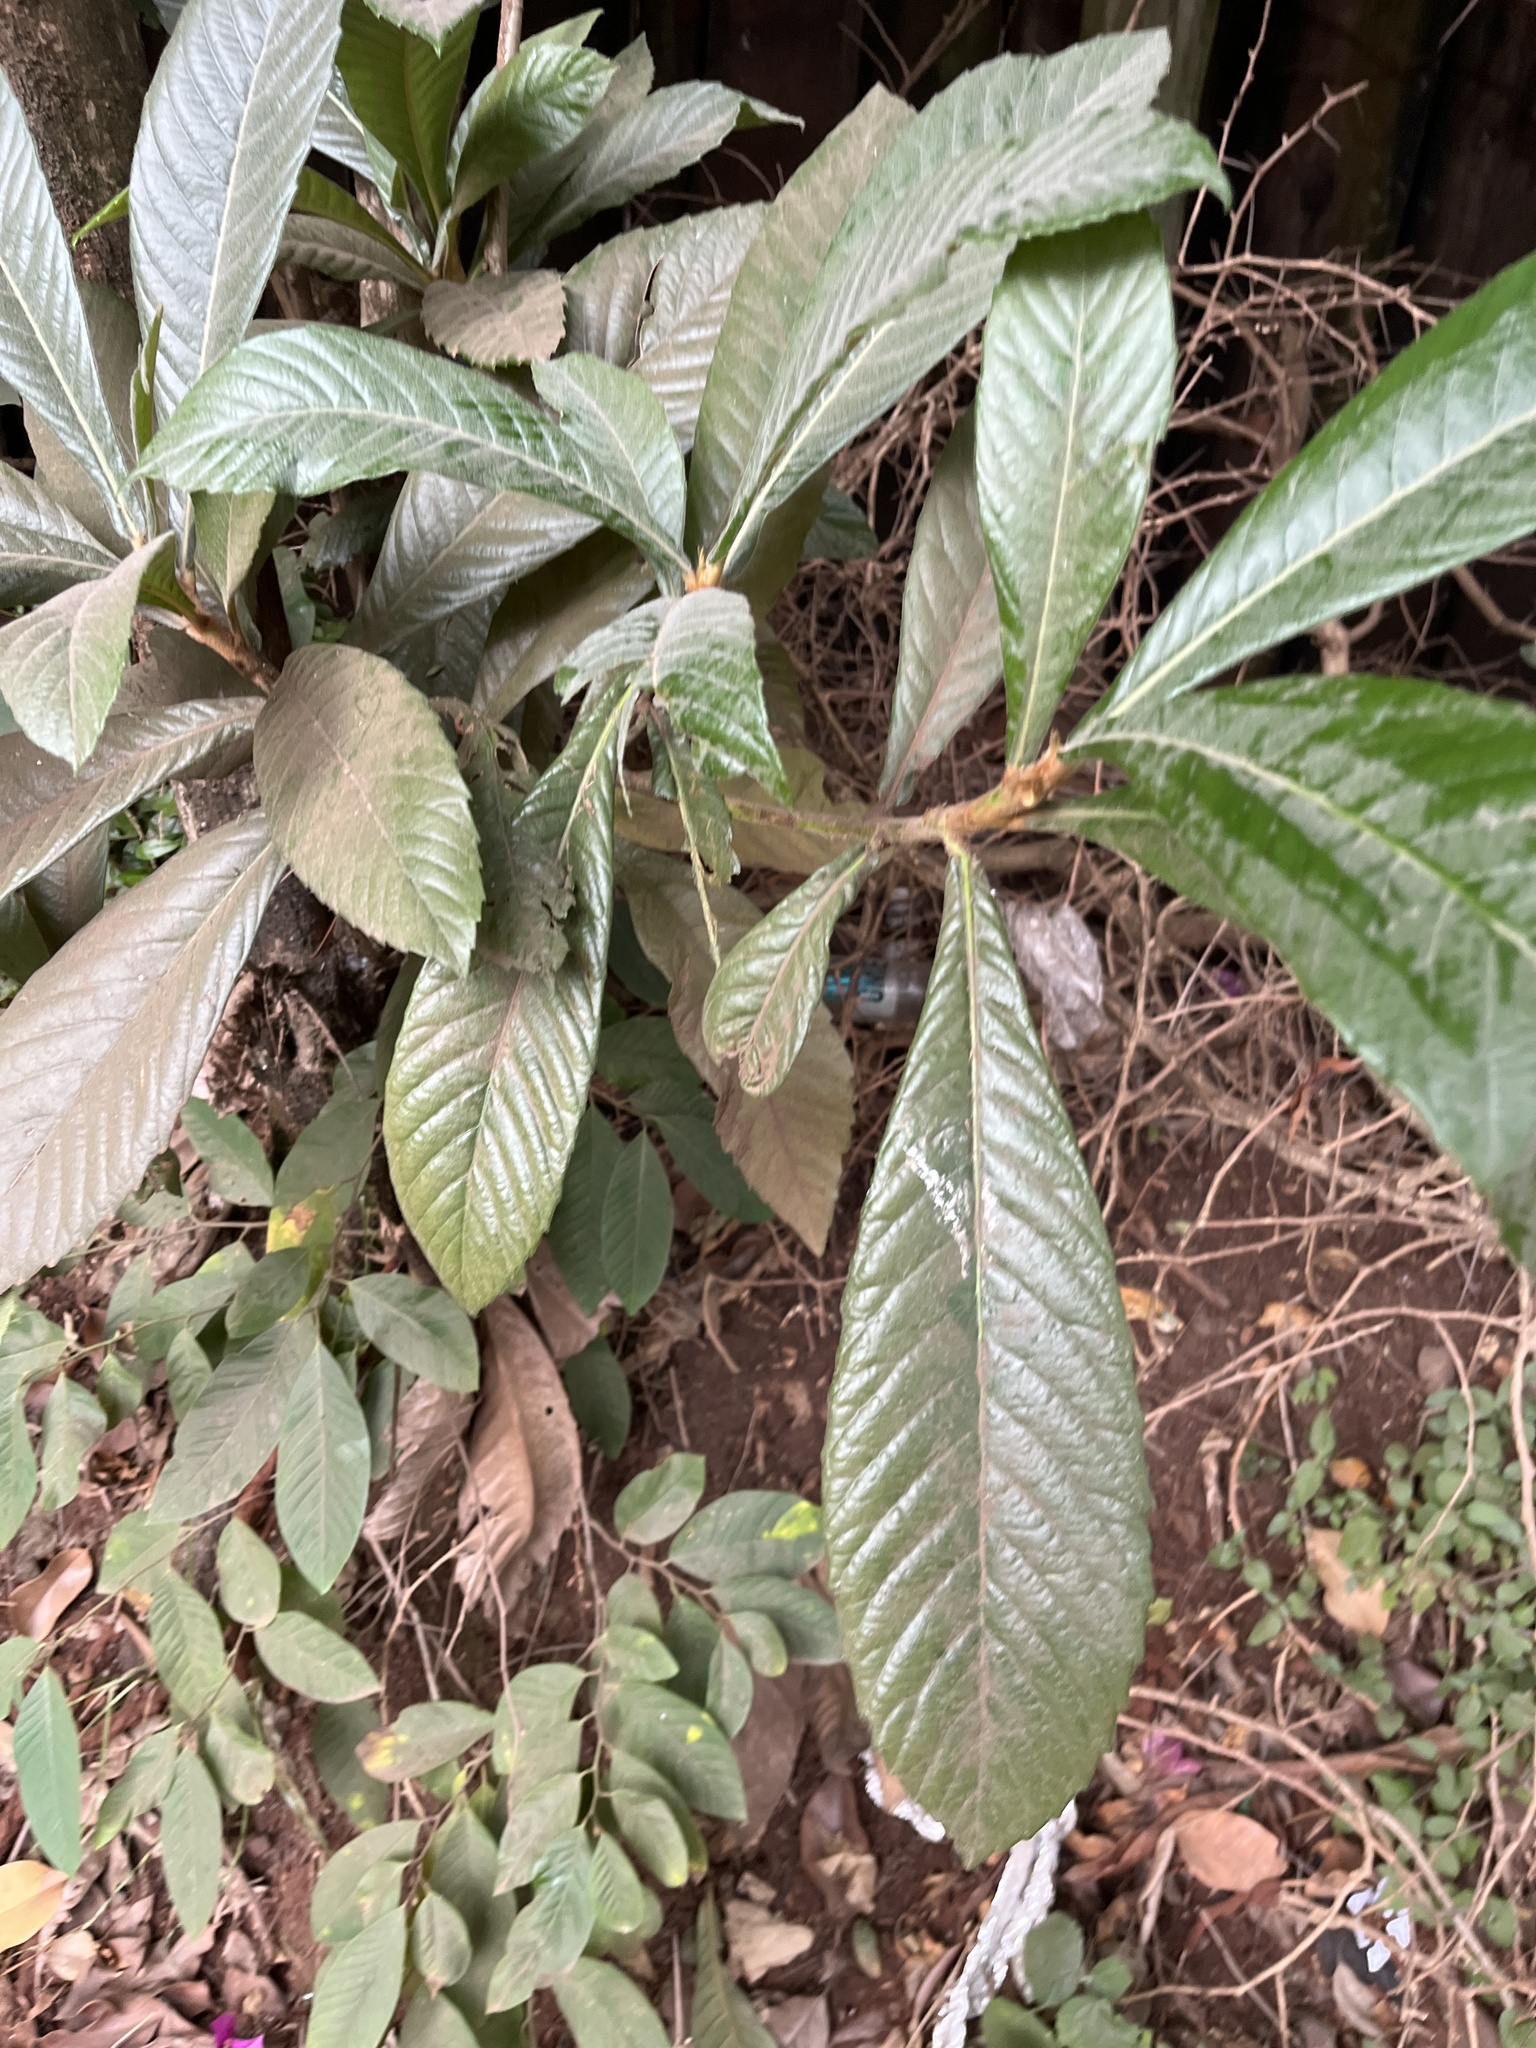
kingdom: Plantae
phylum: Tracheophyta
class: Magnoliopsida
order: Rosales
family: Rosaceae
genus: Rhaphiolepis
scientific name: Rhaphiolepis bibas
